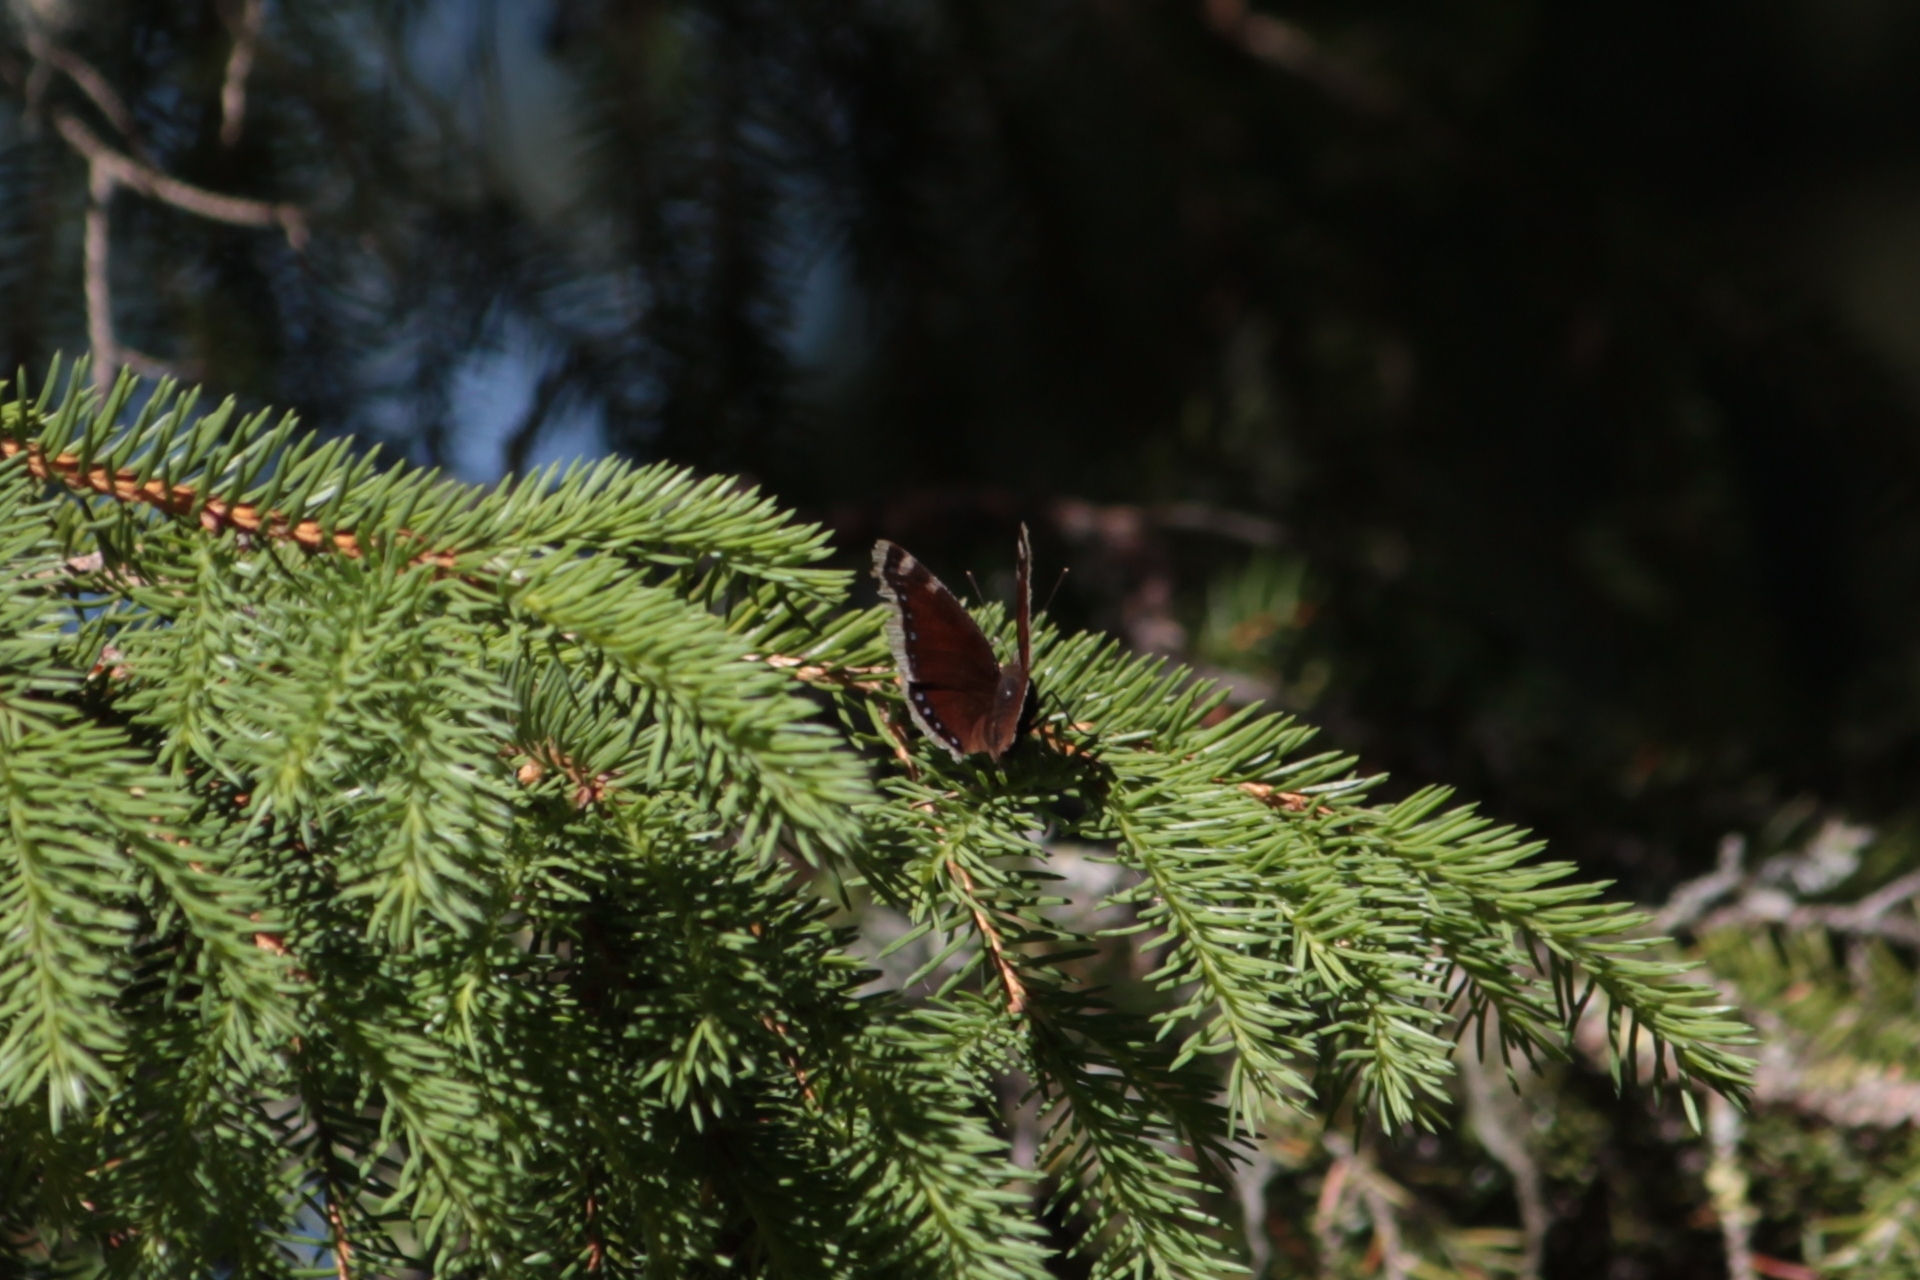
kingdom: Animalia
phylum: Arthropoda
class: Insecta
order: Lepidoptera
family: Nymphalidae
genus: Nymphalis
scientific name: Nymphalis antiopa
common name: Camberwell beauty
